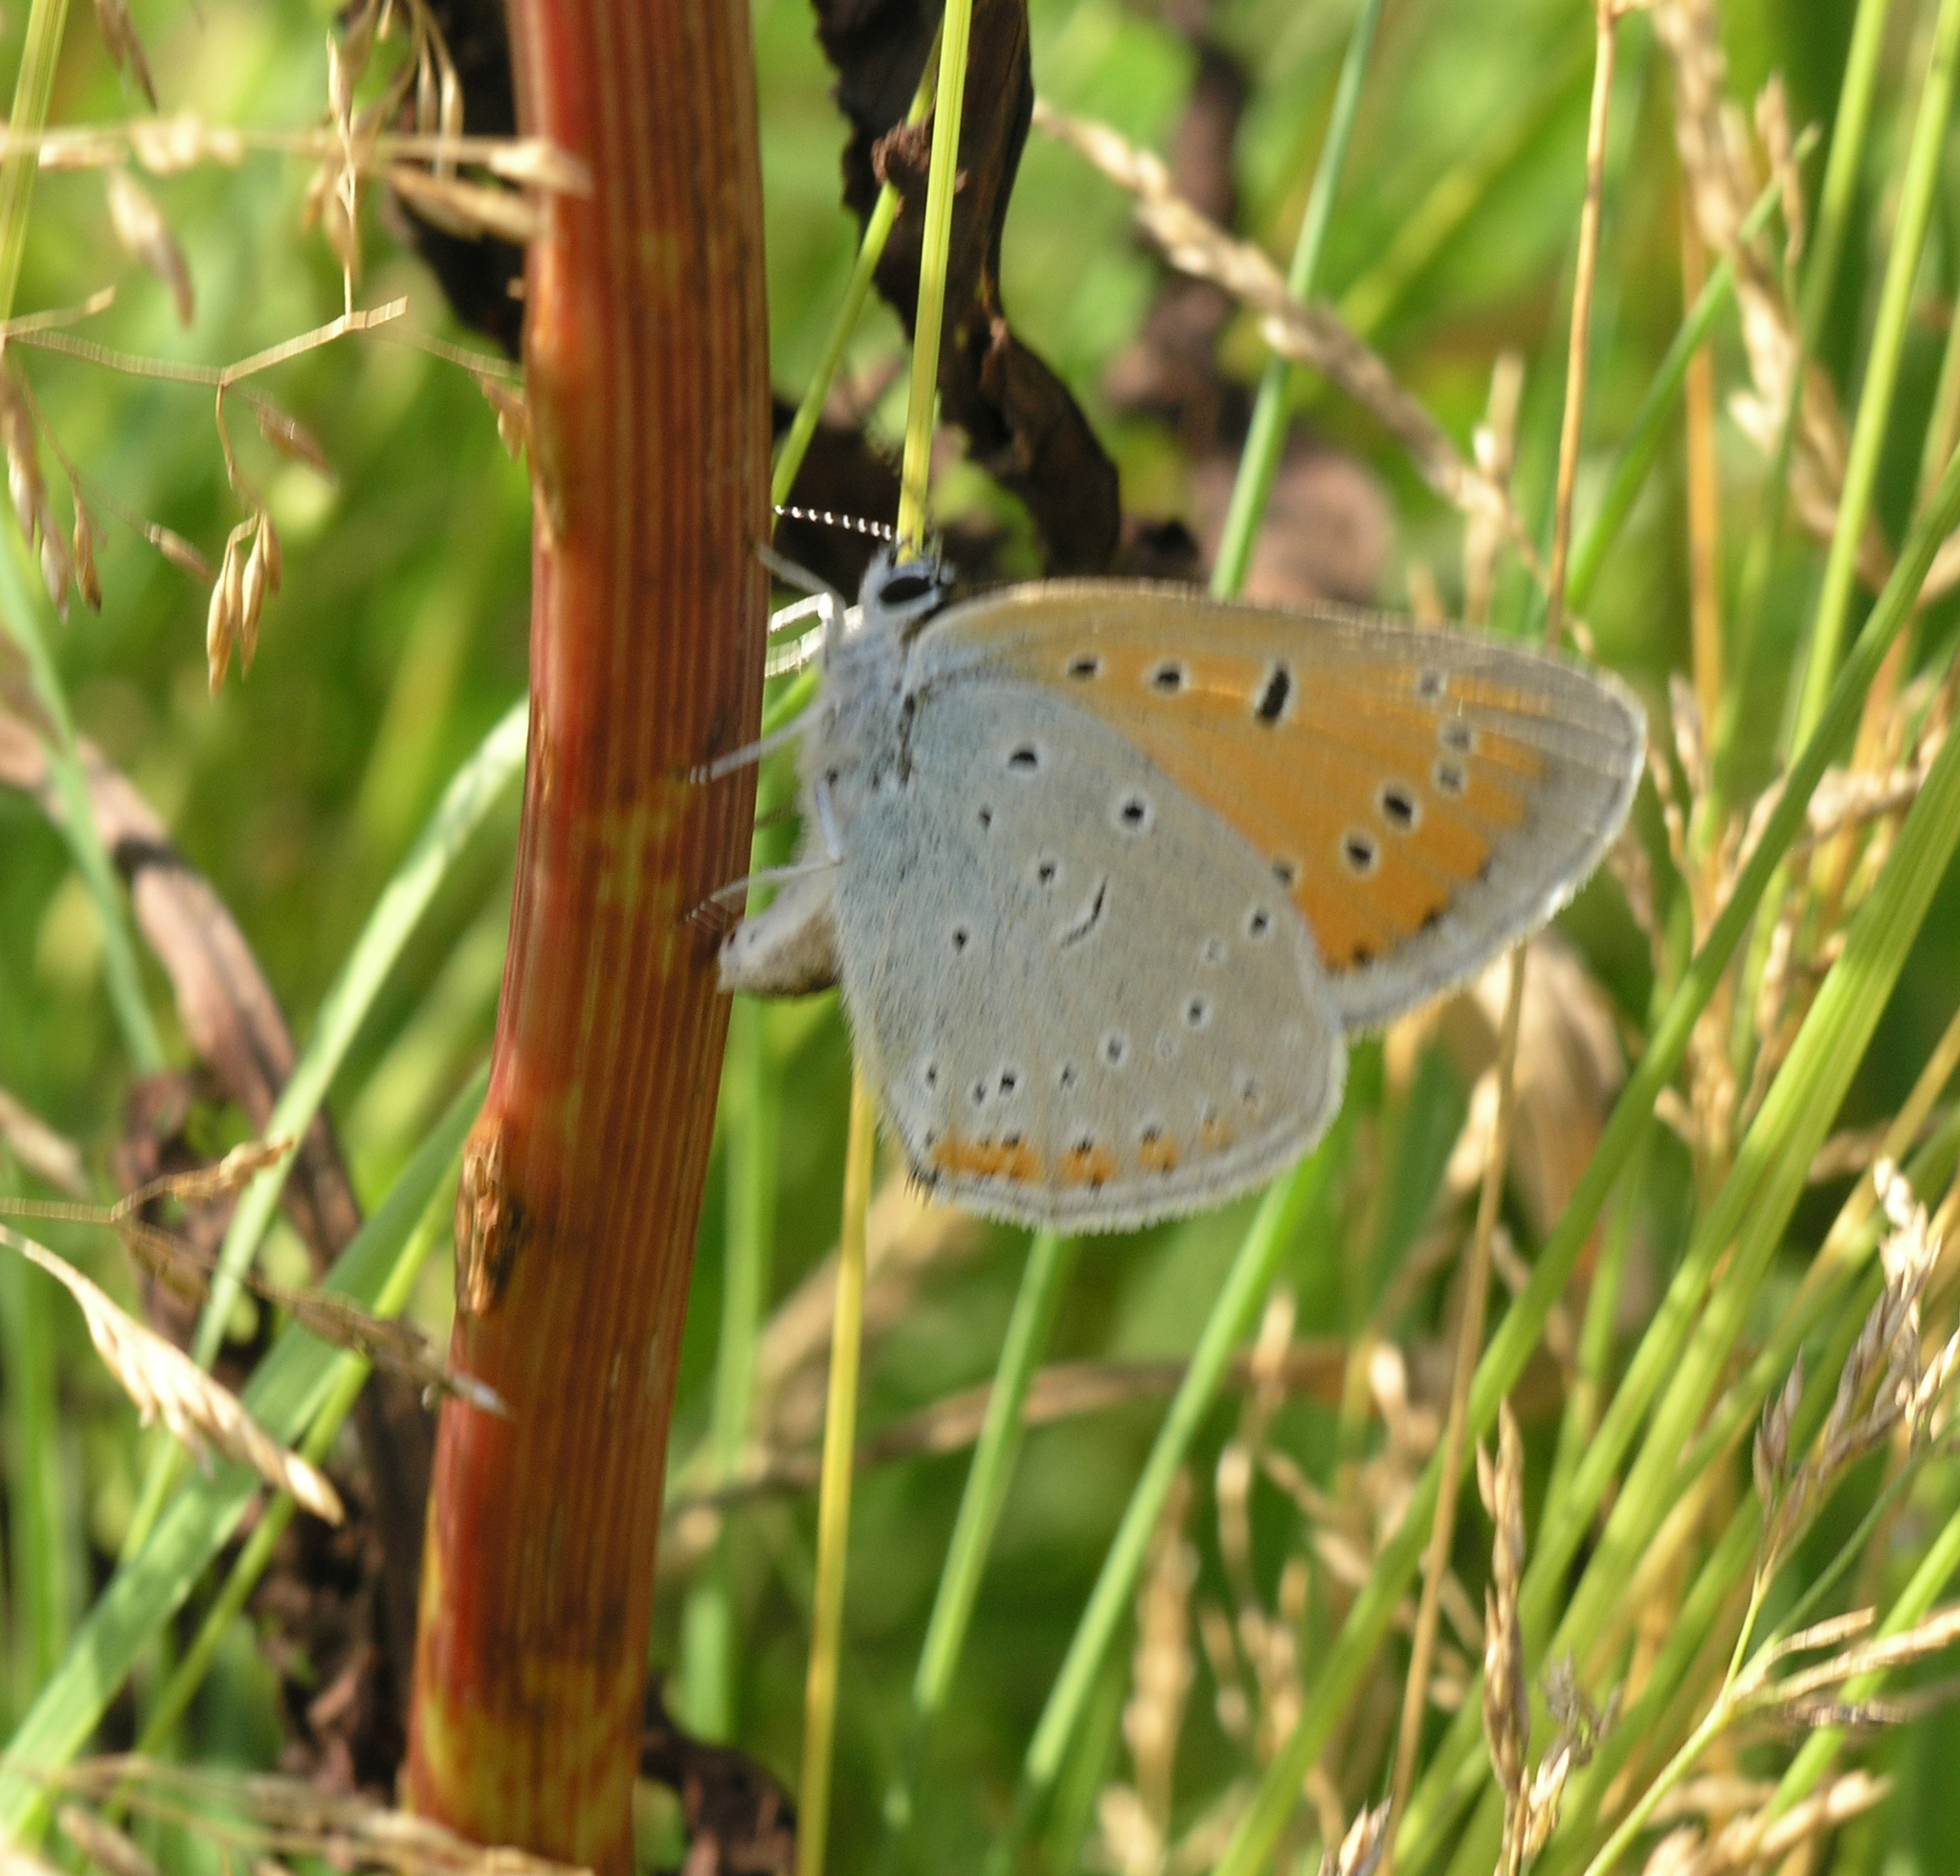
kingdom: Animalia
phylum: Arthropoda
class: Insecta
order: Lepidoptera
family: Lycaenidae
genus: Lycaena
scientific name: Lycaena dispar
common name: Large copper
